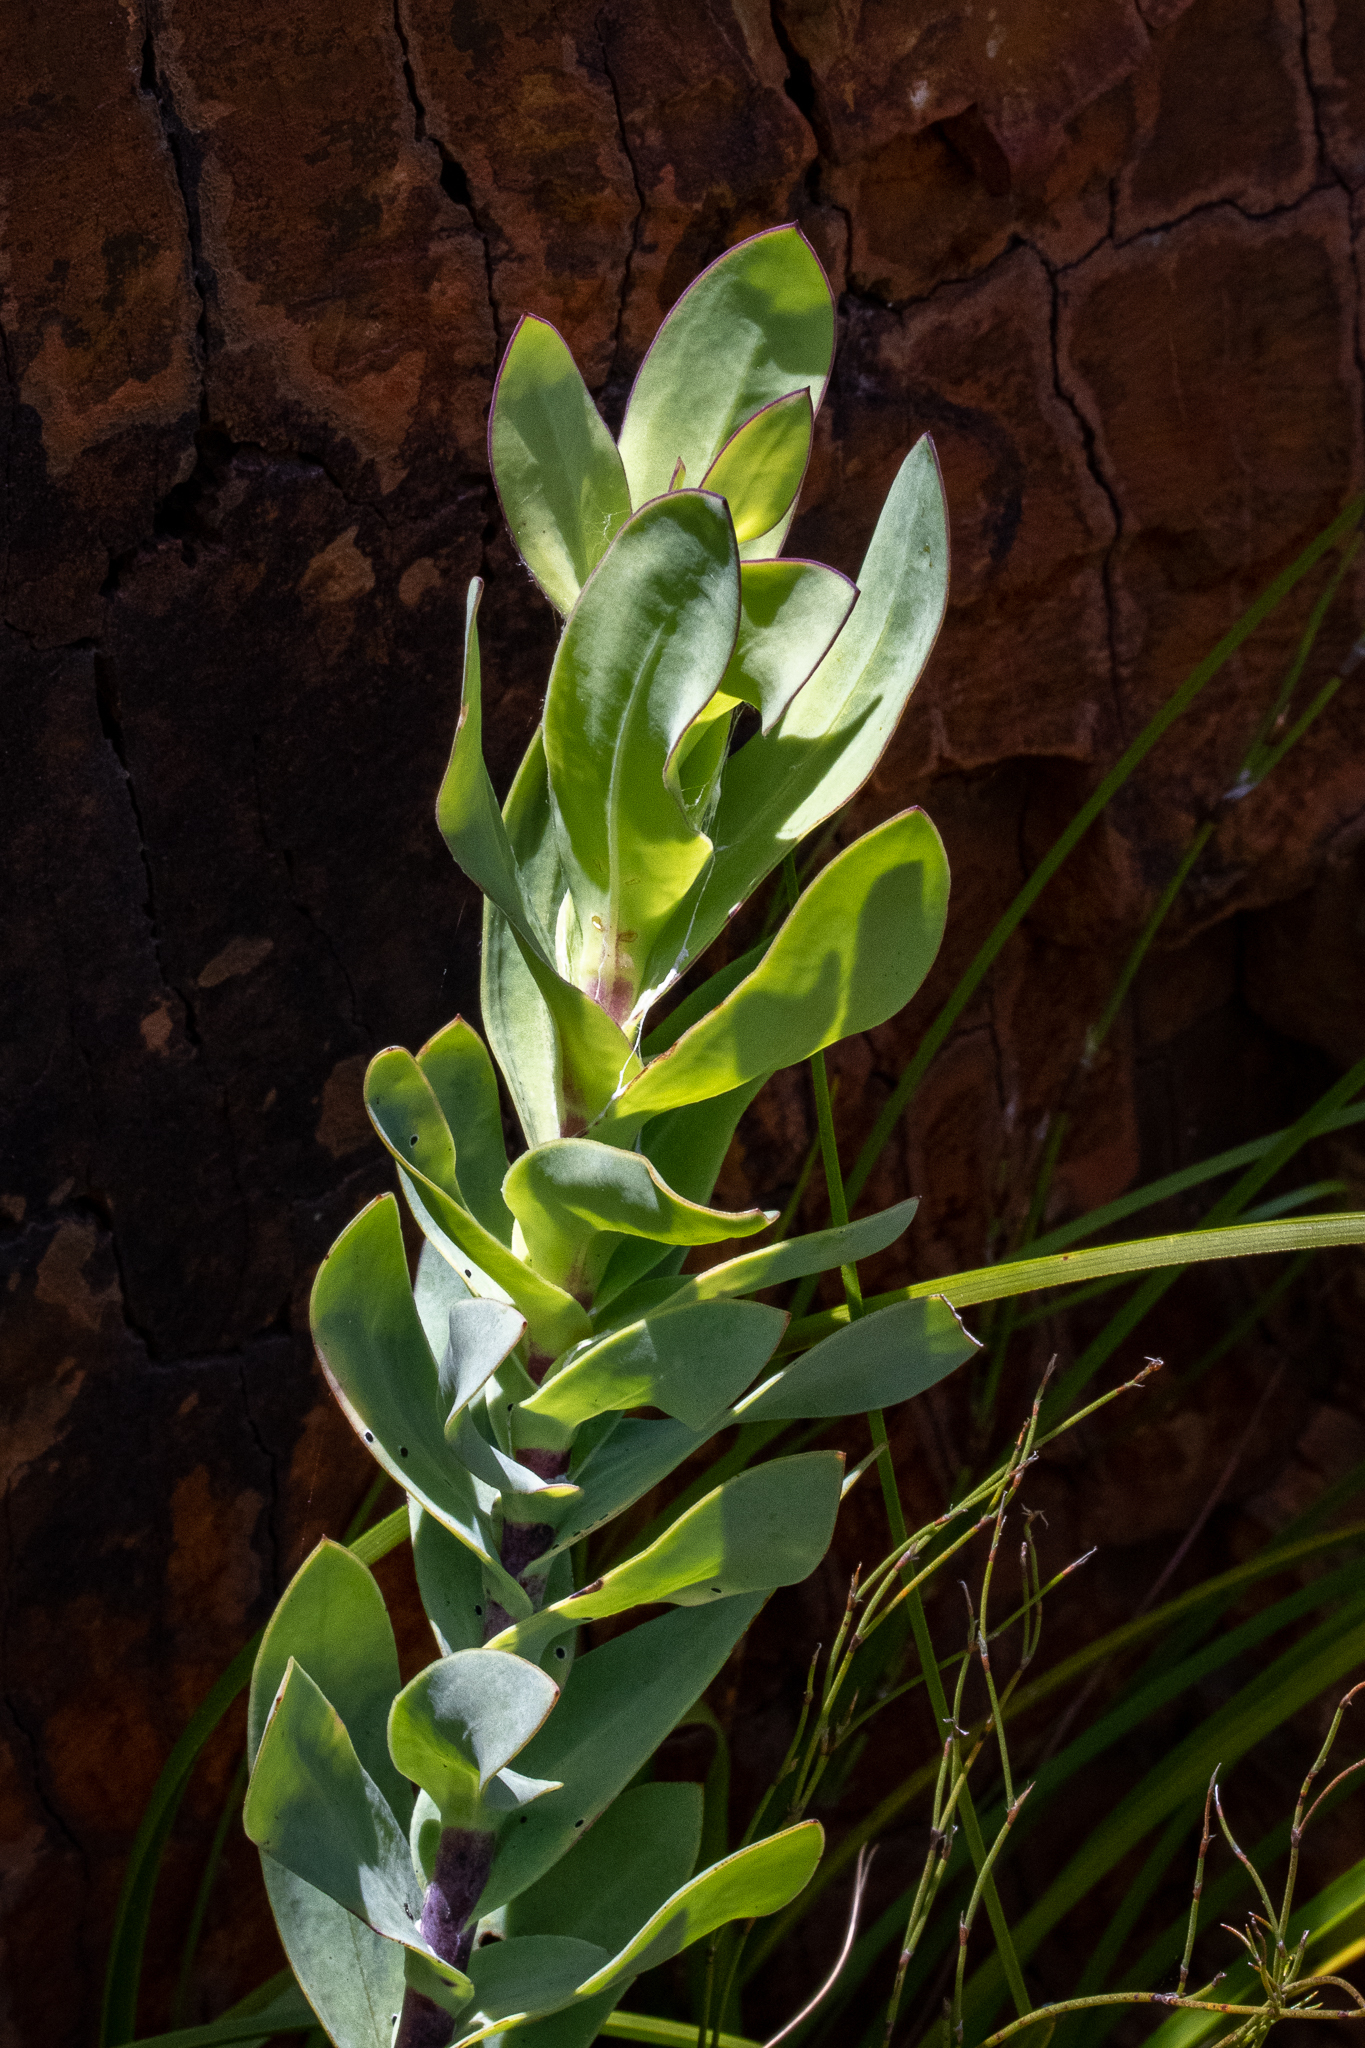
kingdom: Plantae
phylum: Tracheophyta
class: Magnoliopsida
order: Asterales
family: Asteraceae
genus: Othonna
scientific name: Othonna quinquedentata
